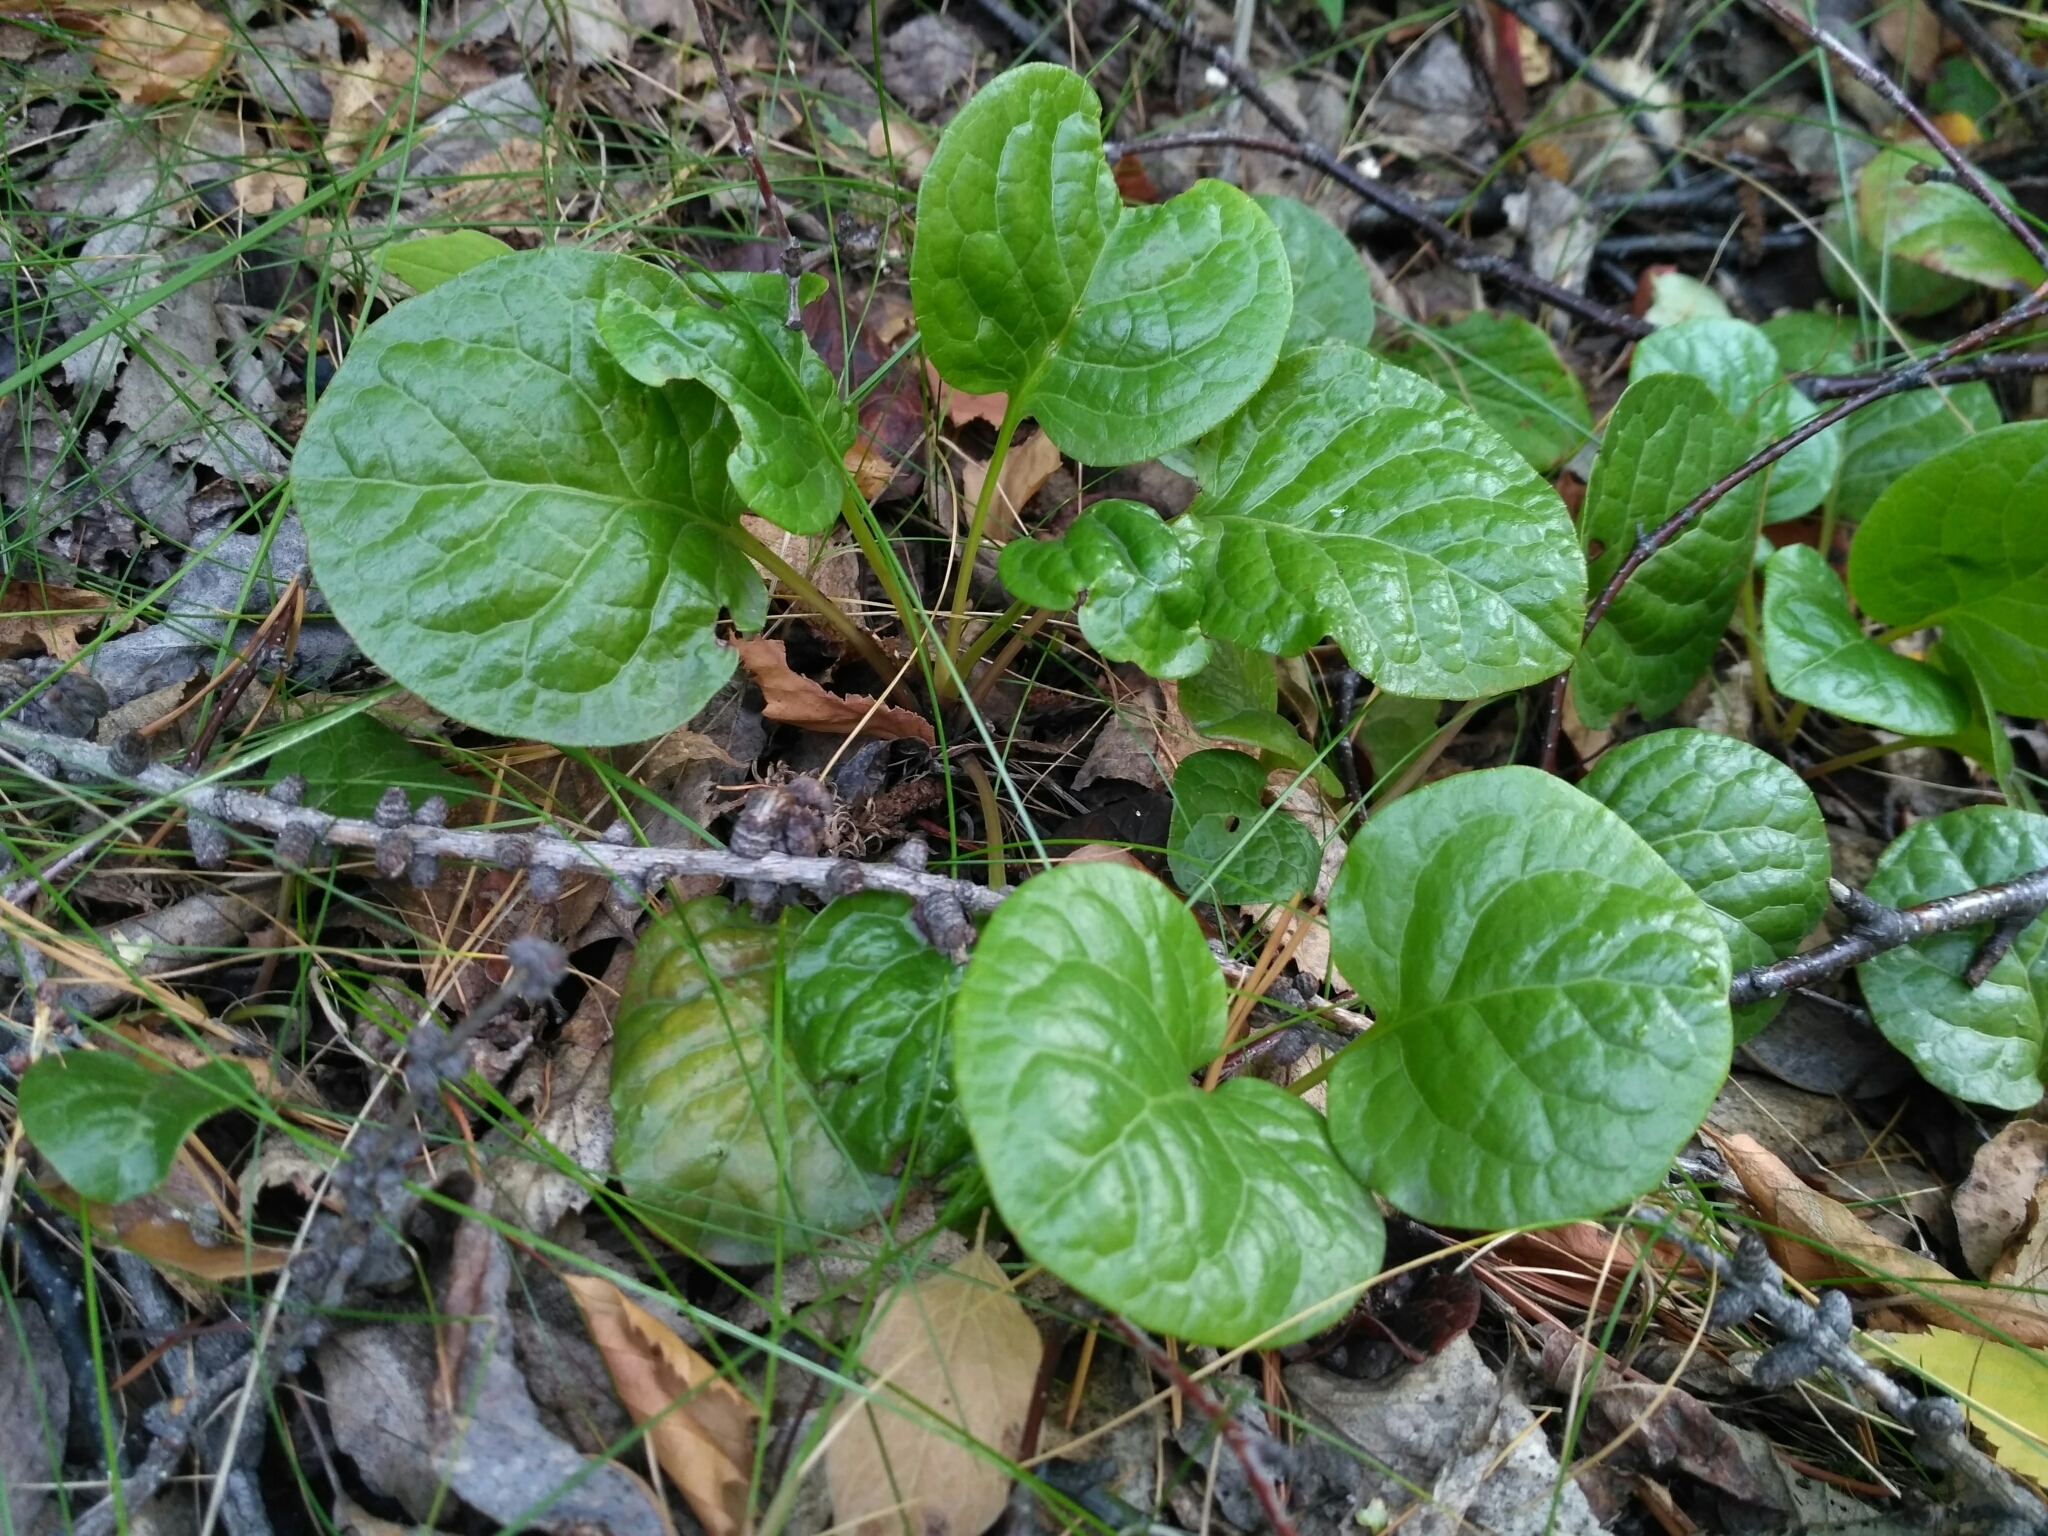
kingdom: Plantae
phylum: Tracheophyta
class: Magnoliopsida
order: Ericales
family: Ericaceae
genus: Pyrola
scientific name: Pyrola rotundifolia
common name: Round-leaved wintergreen
